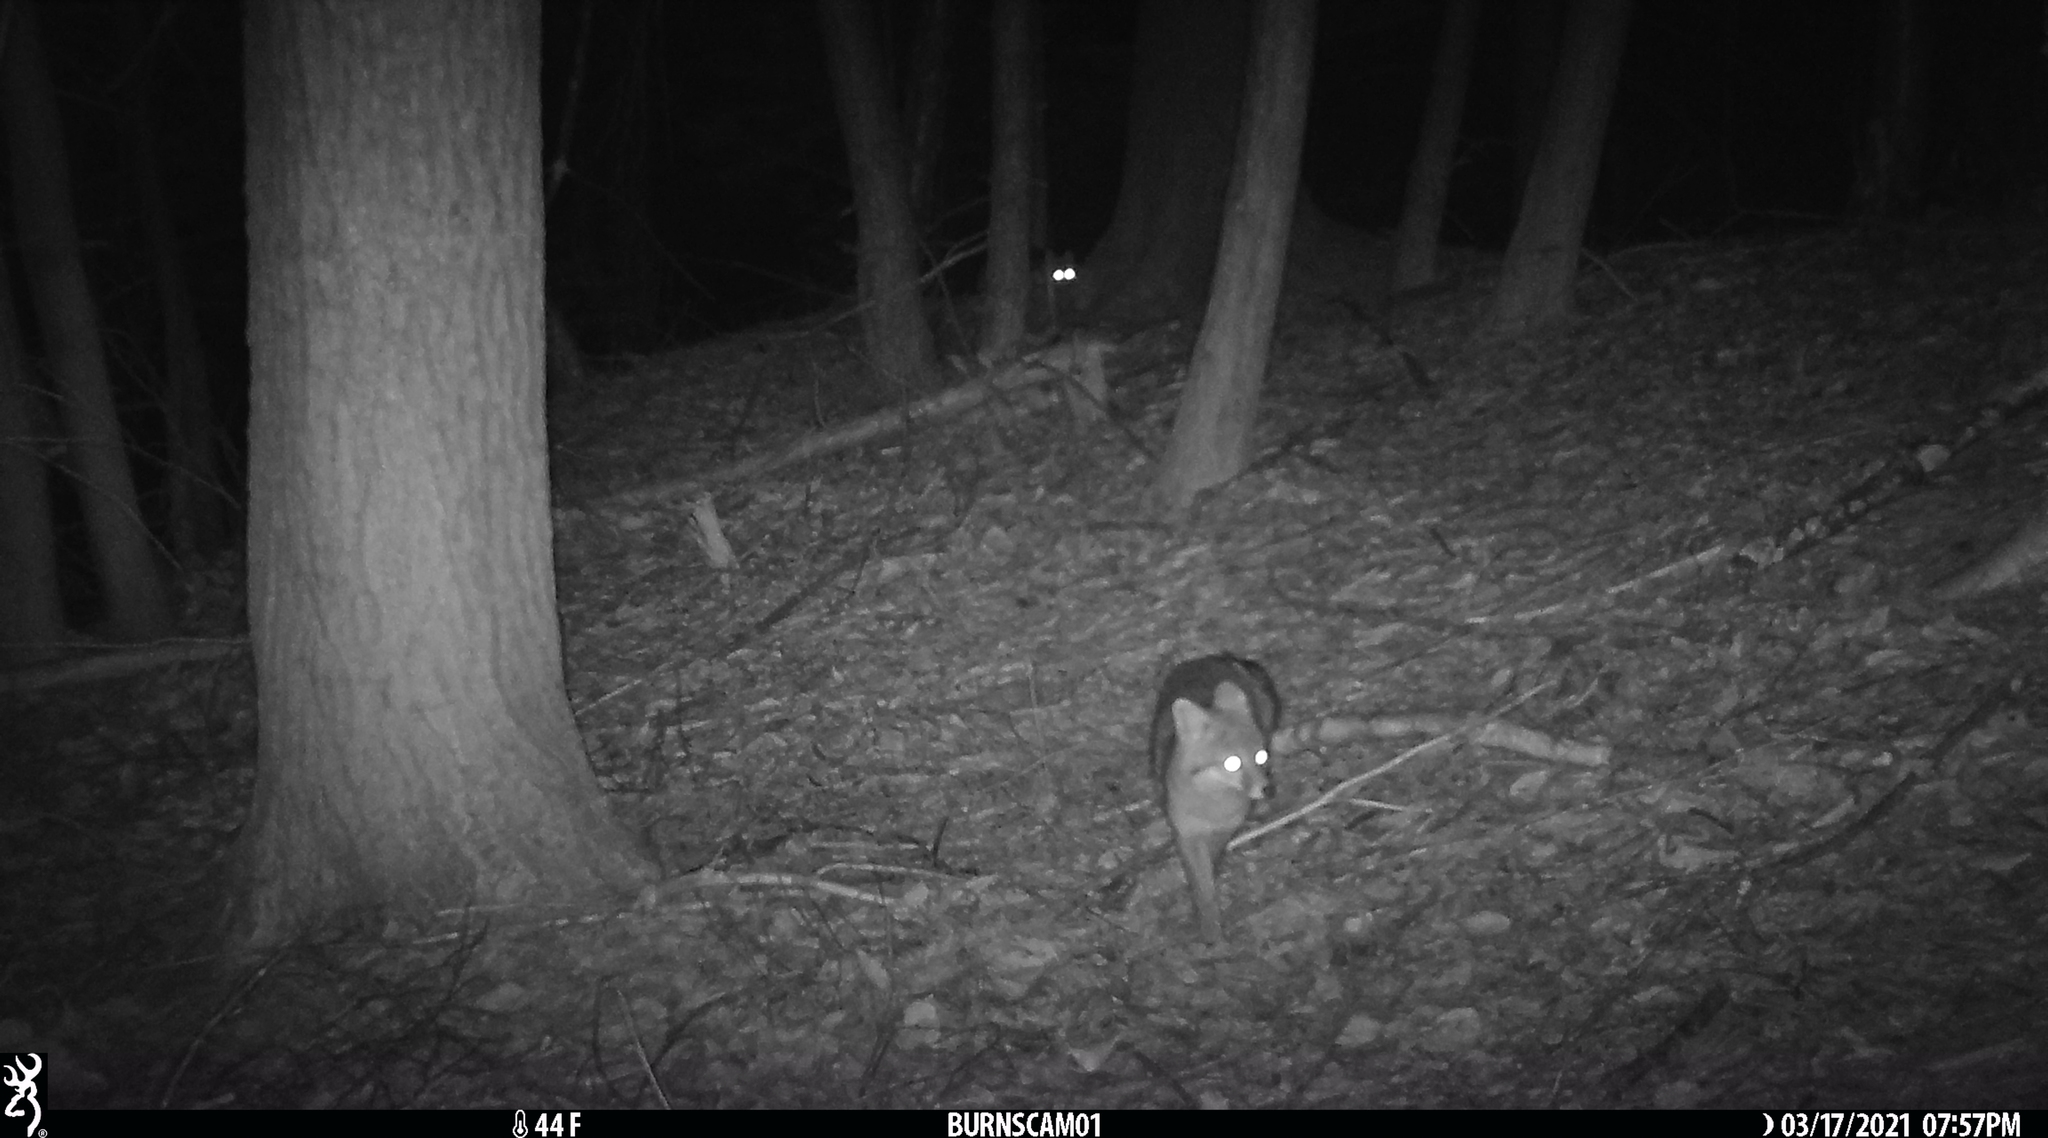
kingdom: Animalia
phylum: Chordata
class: Mammalia
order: Carnivora
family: Canidae
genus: Urocyon
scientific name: Urocyon cinereoargenteus
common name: Gray fox
